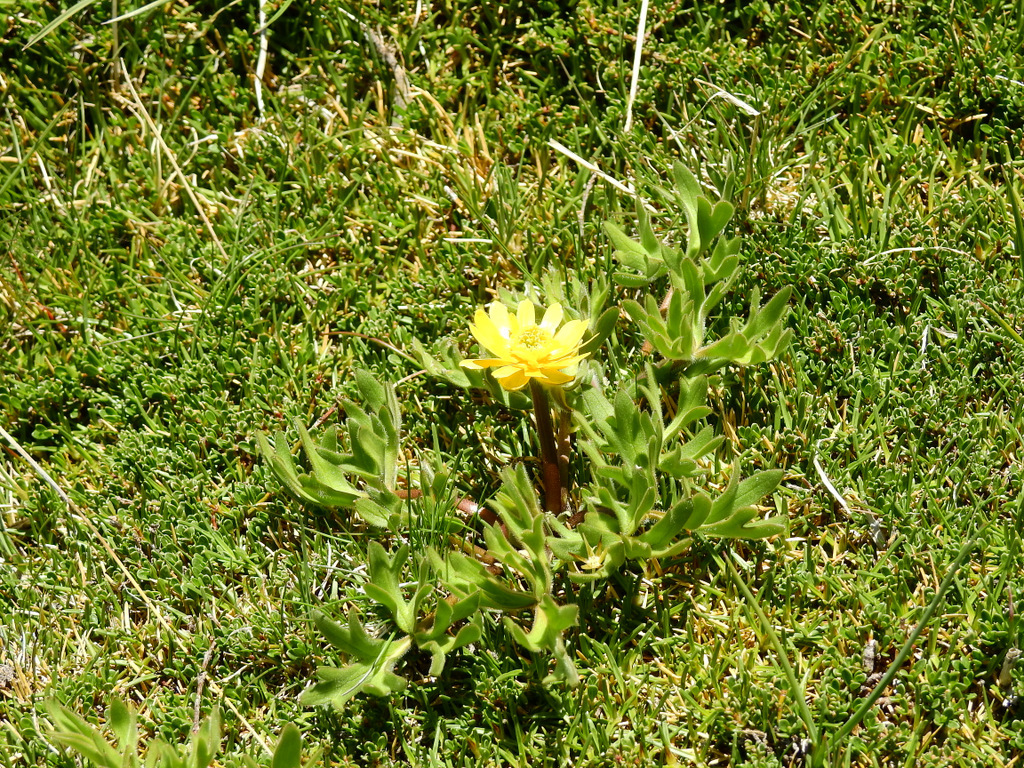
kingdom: Plantae
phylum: Tracheophyta
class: Magnoliopsida
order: Ranunculales
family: Ranunculaceae
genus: Ranunculus
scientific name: Ranunculus peduncularis
